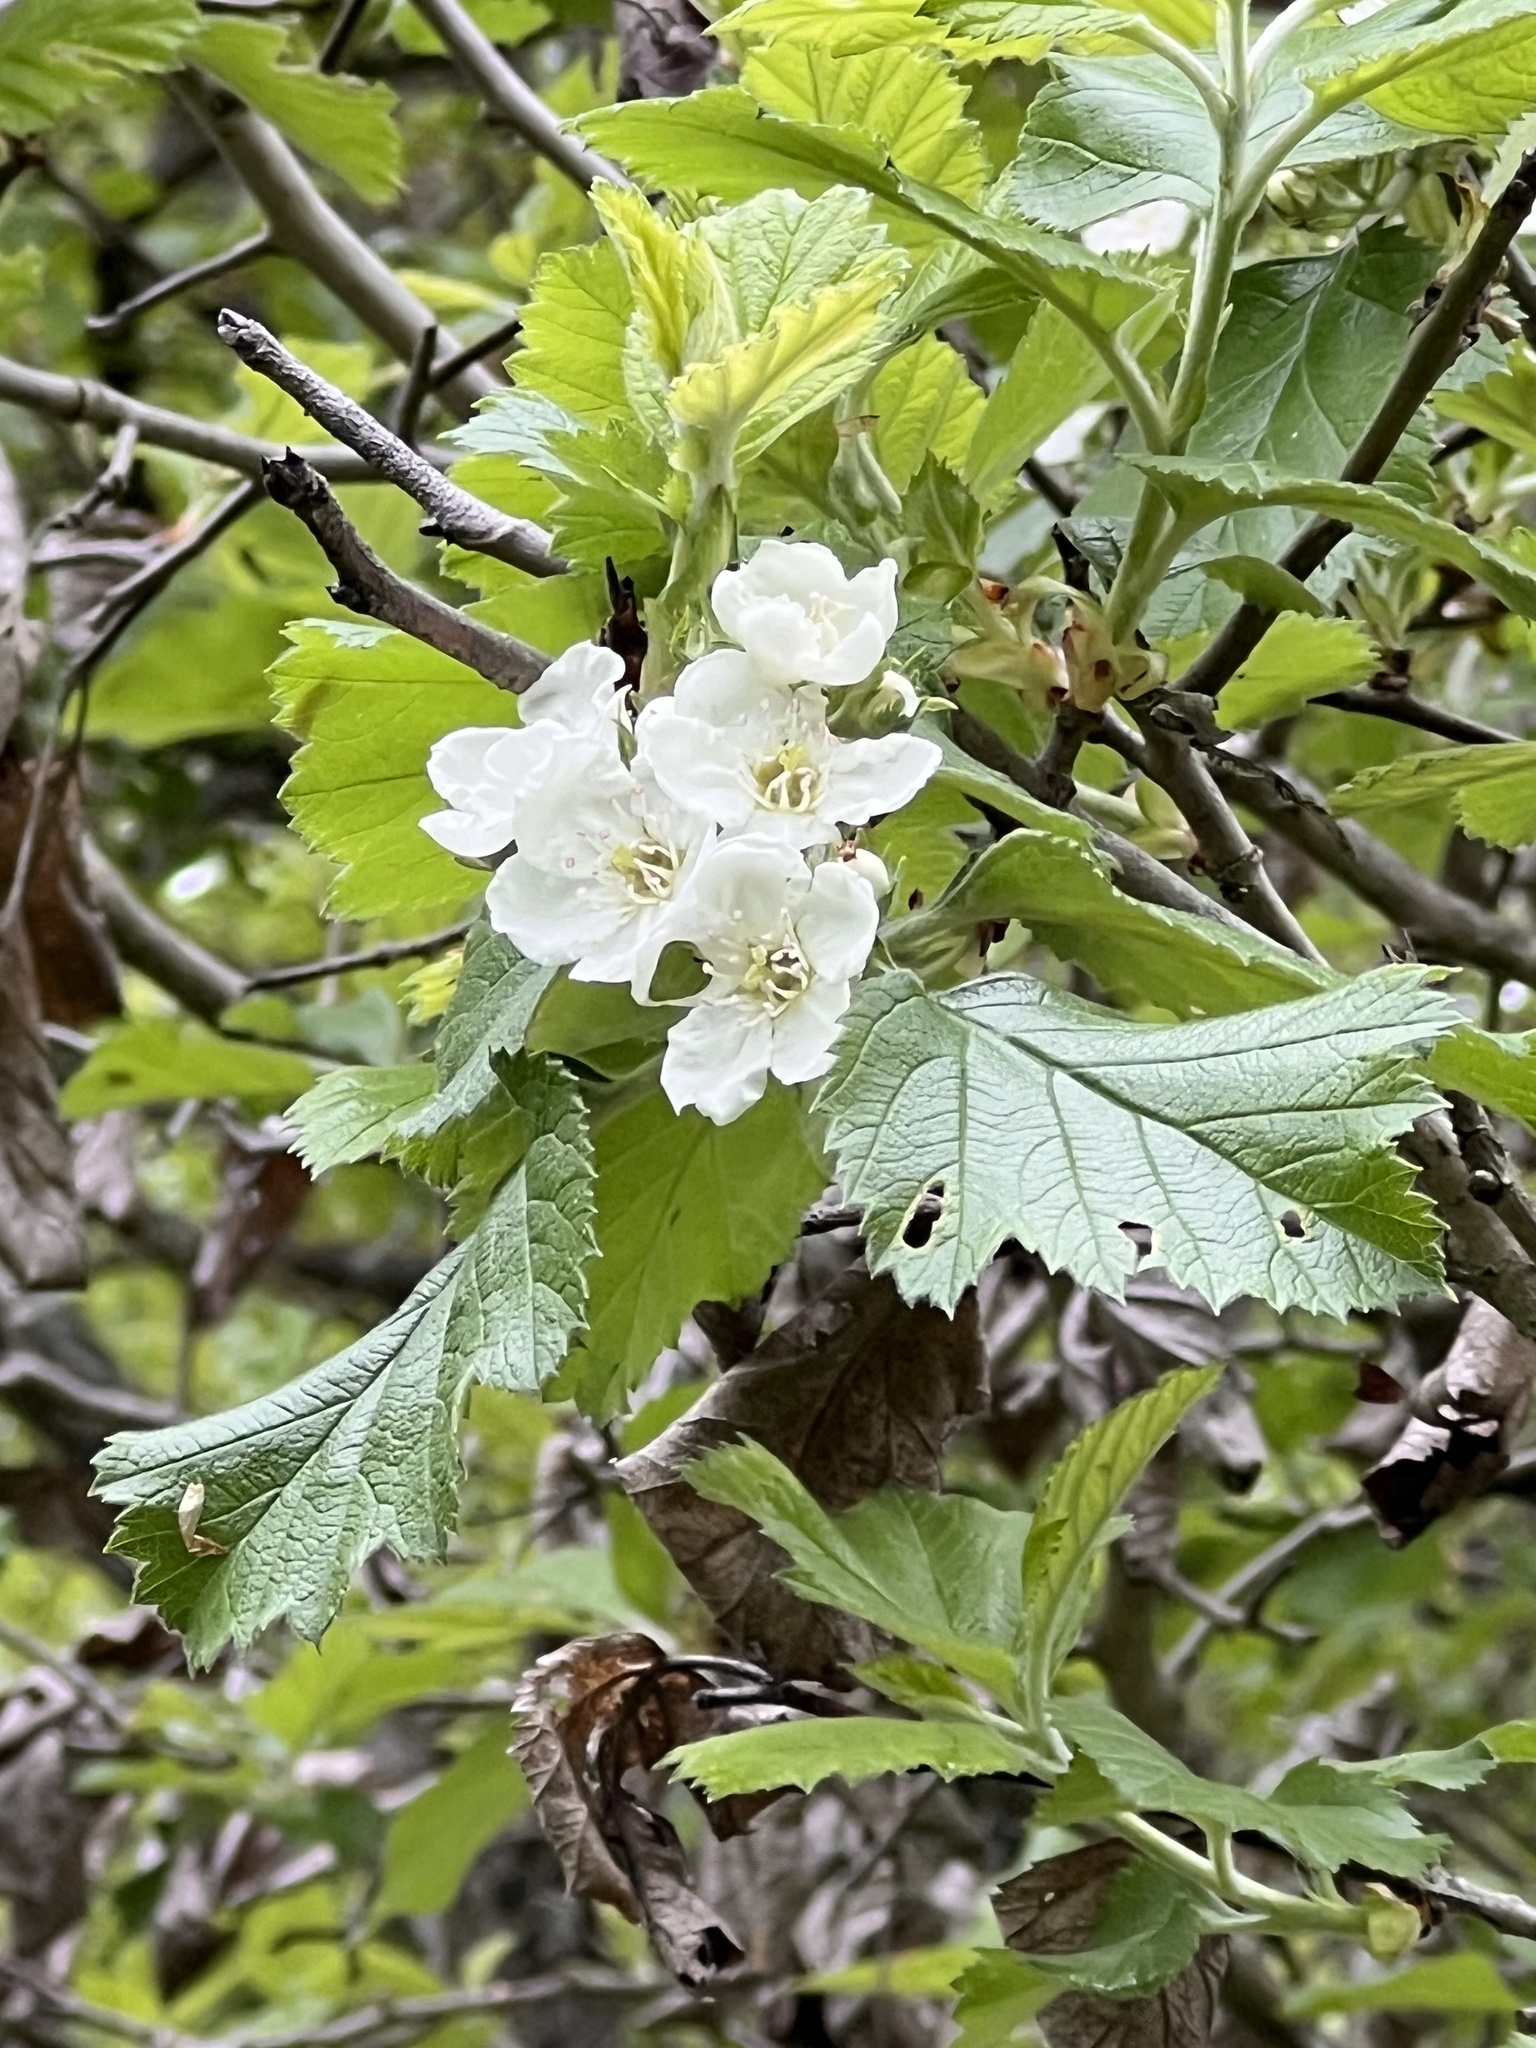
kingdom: Plantae
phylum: Tracheophyta
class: Magnoliopsida
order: Rosales
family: Rosaceae
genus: Crataegus
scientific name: Crataegus mollis
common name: Downy hawthorn
